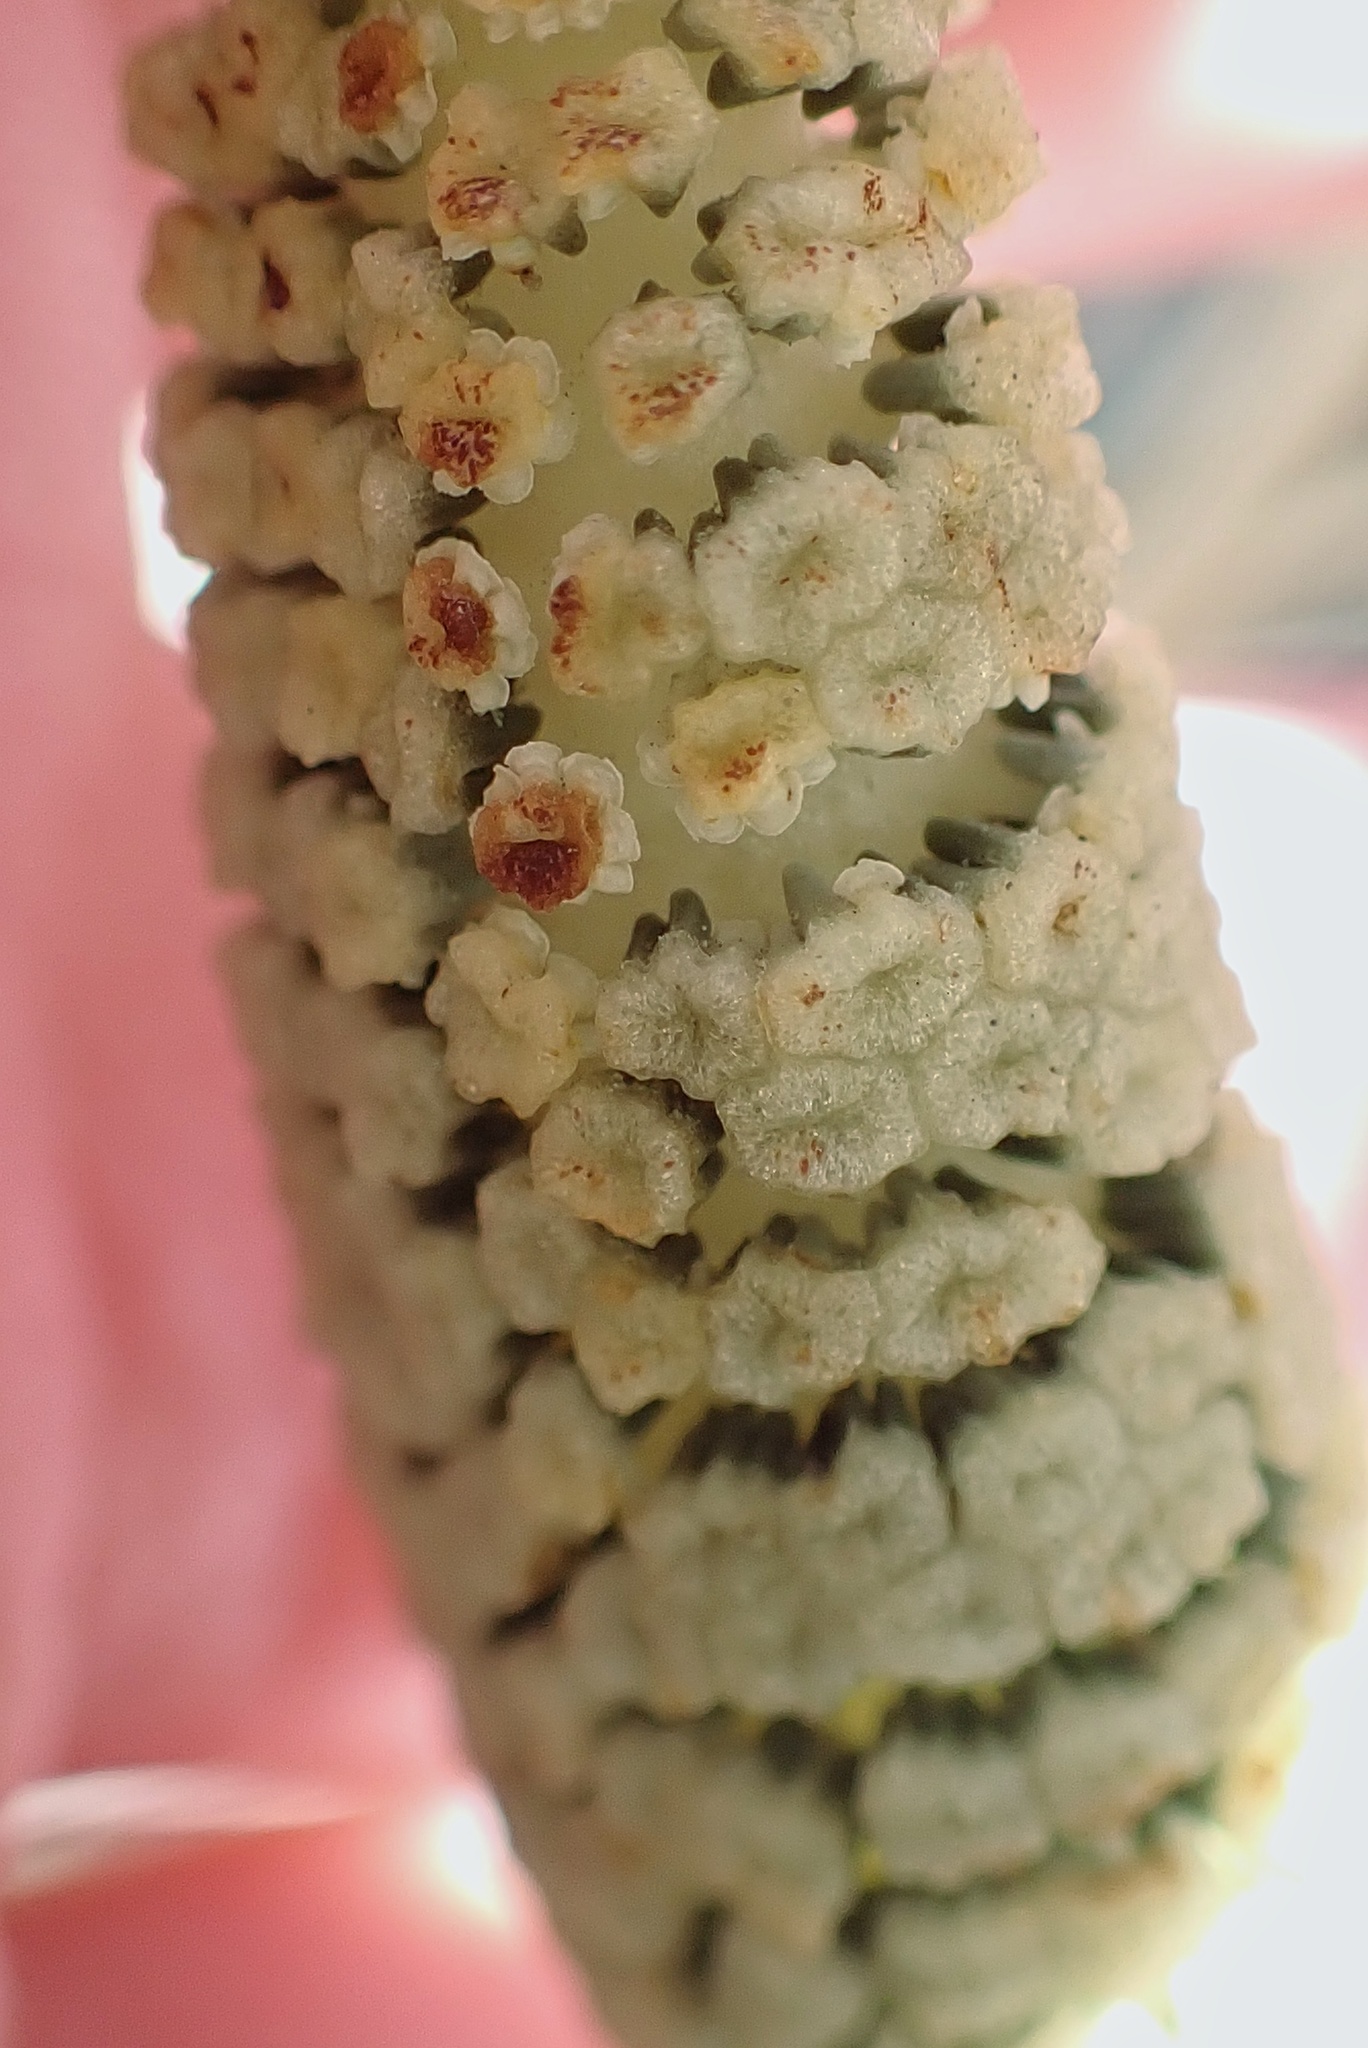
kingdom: Plantae
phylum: Tracheophyta
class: Polypodiopsida
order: Equisetales
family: Equisetaceae
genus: Equisetum
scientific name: Equisetum braunii
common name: Braun's horsetail
